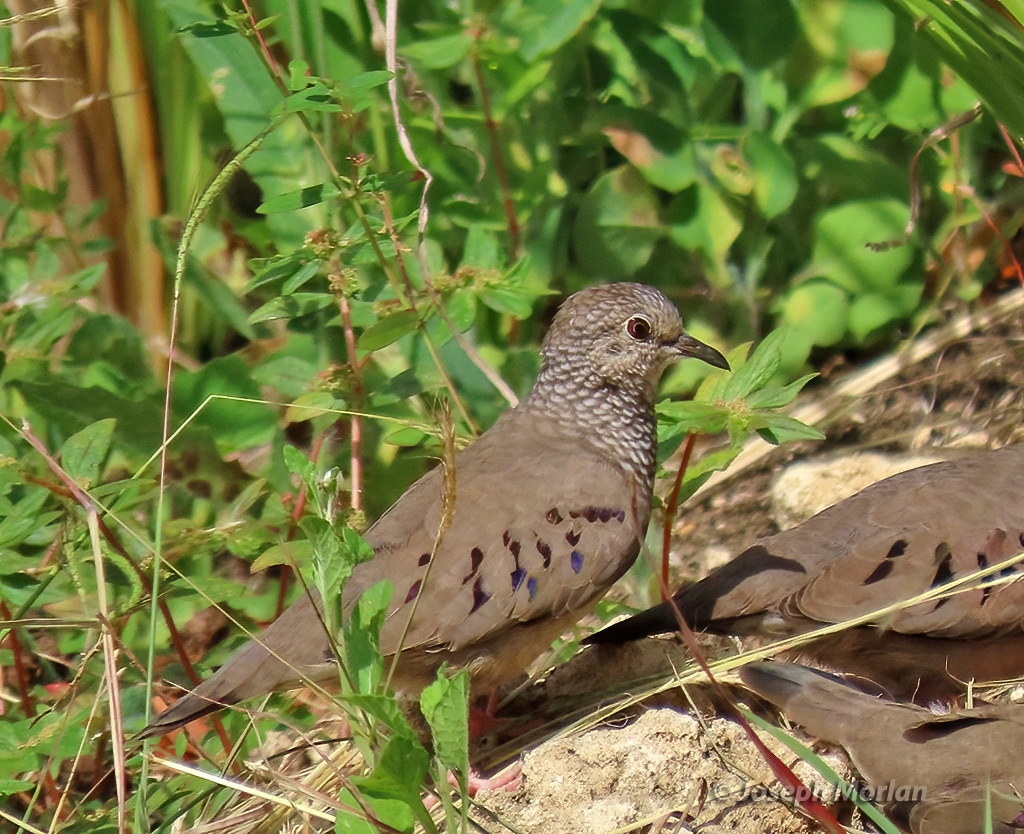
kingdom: Animalia
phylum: Chordata
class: Aves
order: Columbiformes
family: Columbidae
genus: Columbina
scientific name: Columbina passerina
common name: Common ground-dove
